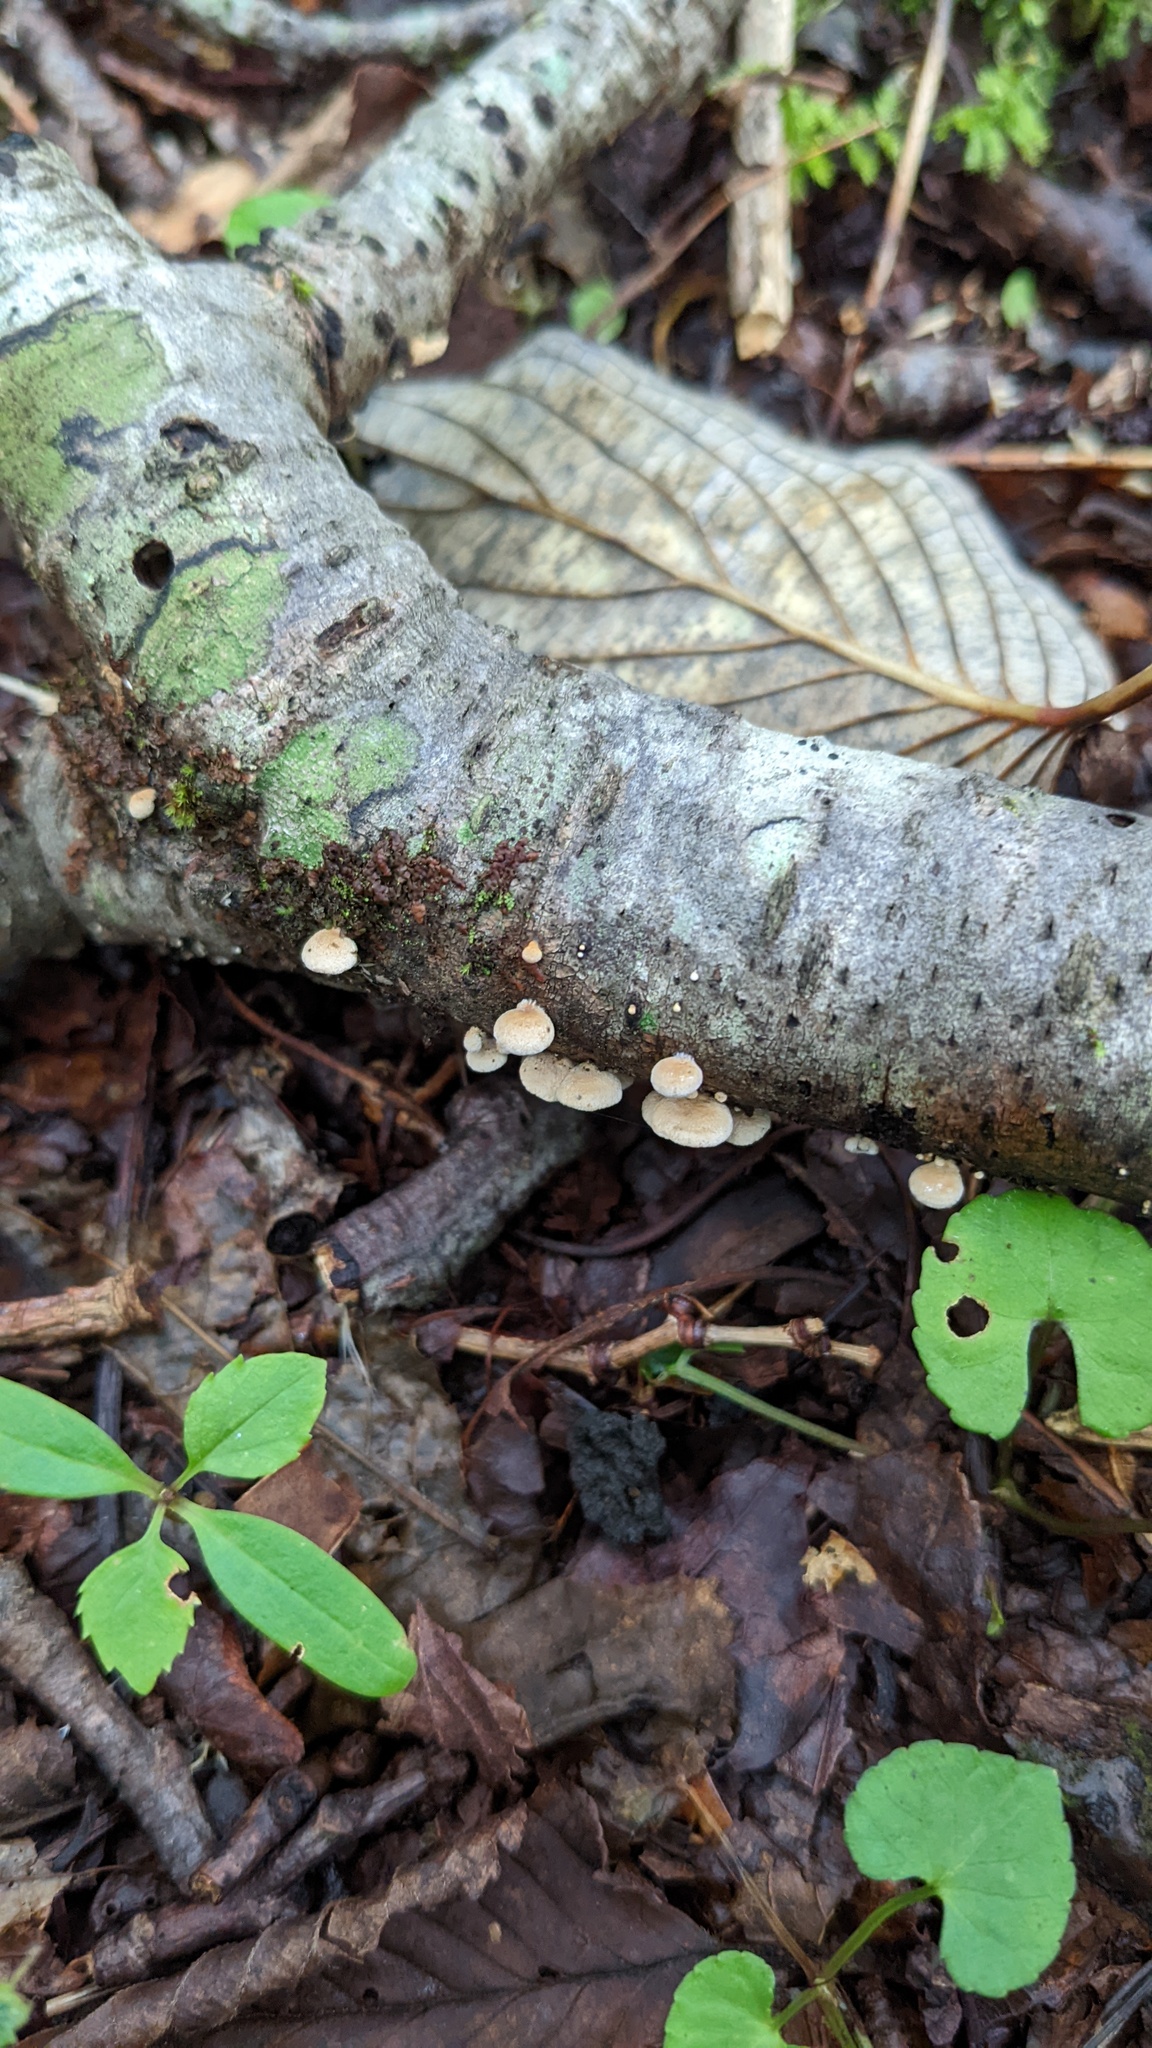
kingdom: Fungi
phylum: Basidiomycota
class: Agaricomycetes
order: Agaricales
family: Mycenaceae
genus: Panellus
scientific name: Panellus stipticus
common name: Bitter oysterling
